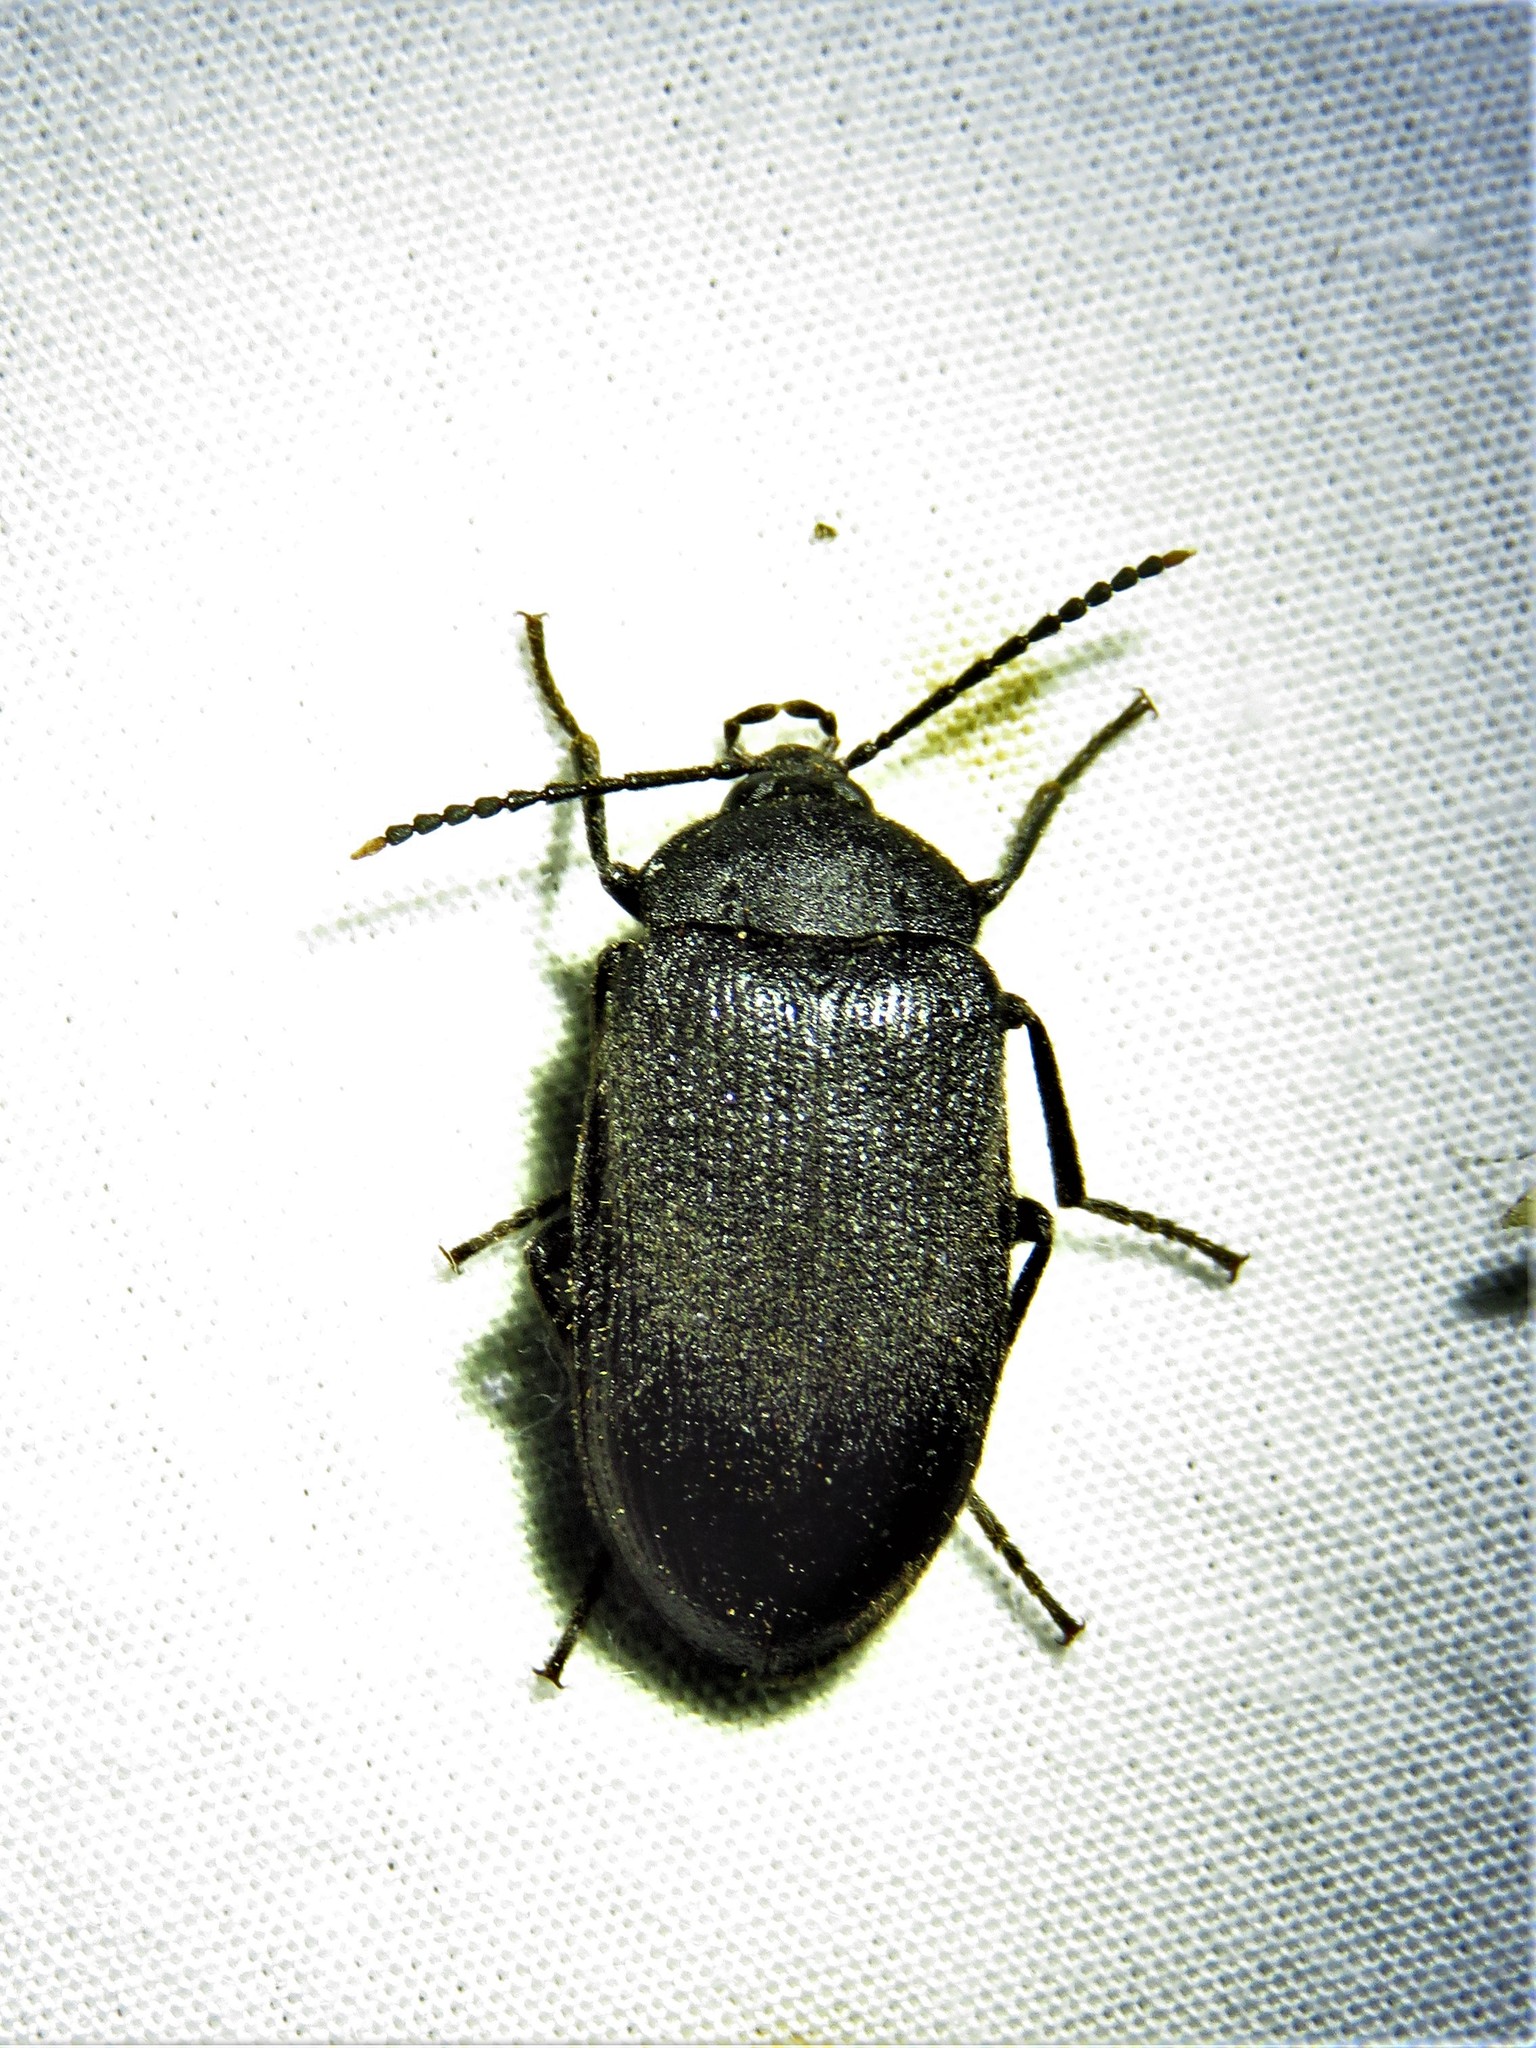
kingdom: Animalia
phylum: Arthropoda
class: Insecta
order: Coleoptera
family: Tetratomidae
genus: Penthe
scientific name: Penthe pimelia
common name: Velvety bark beetle
